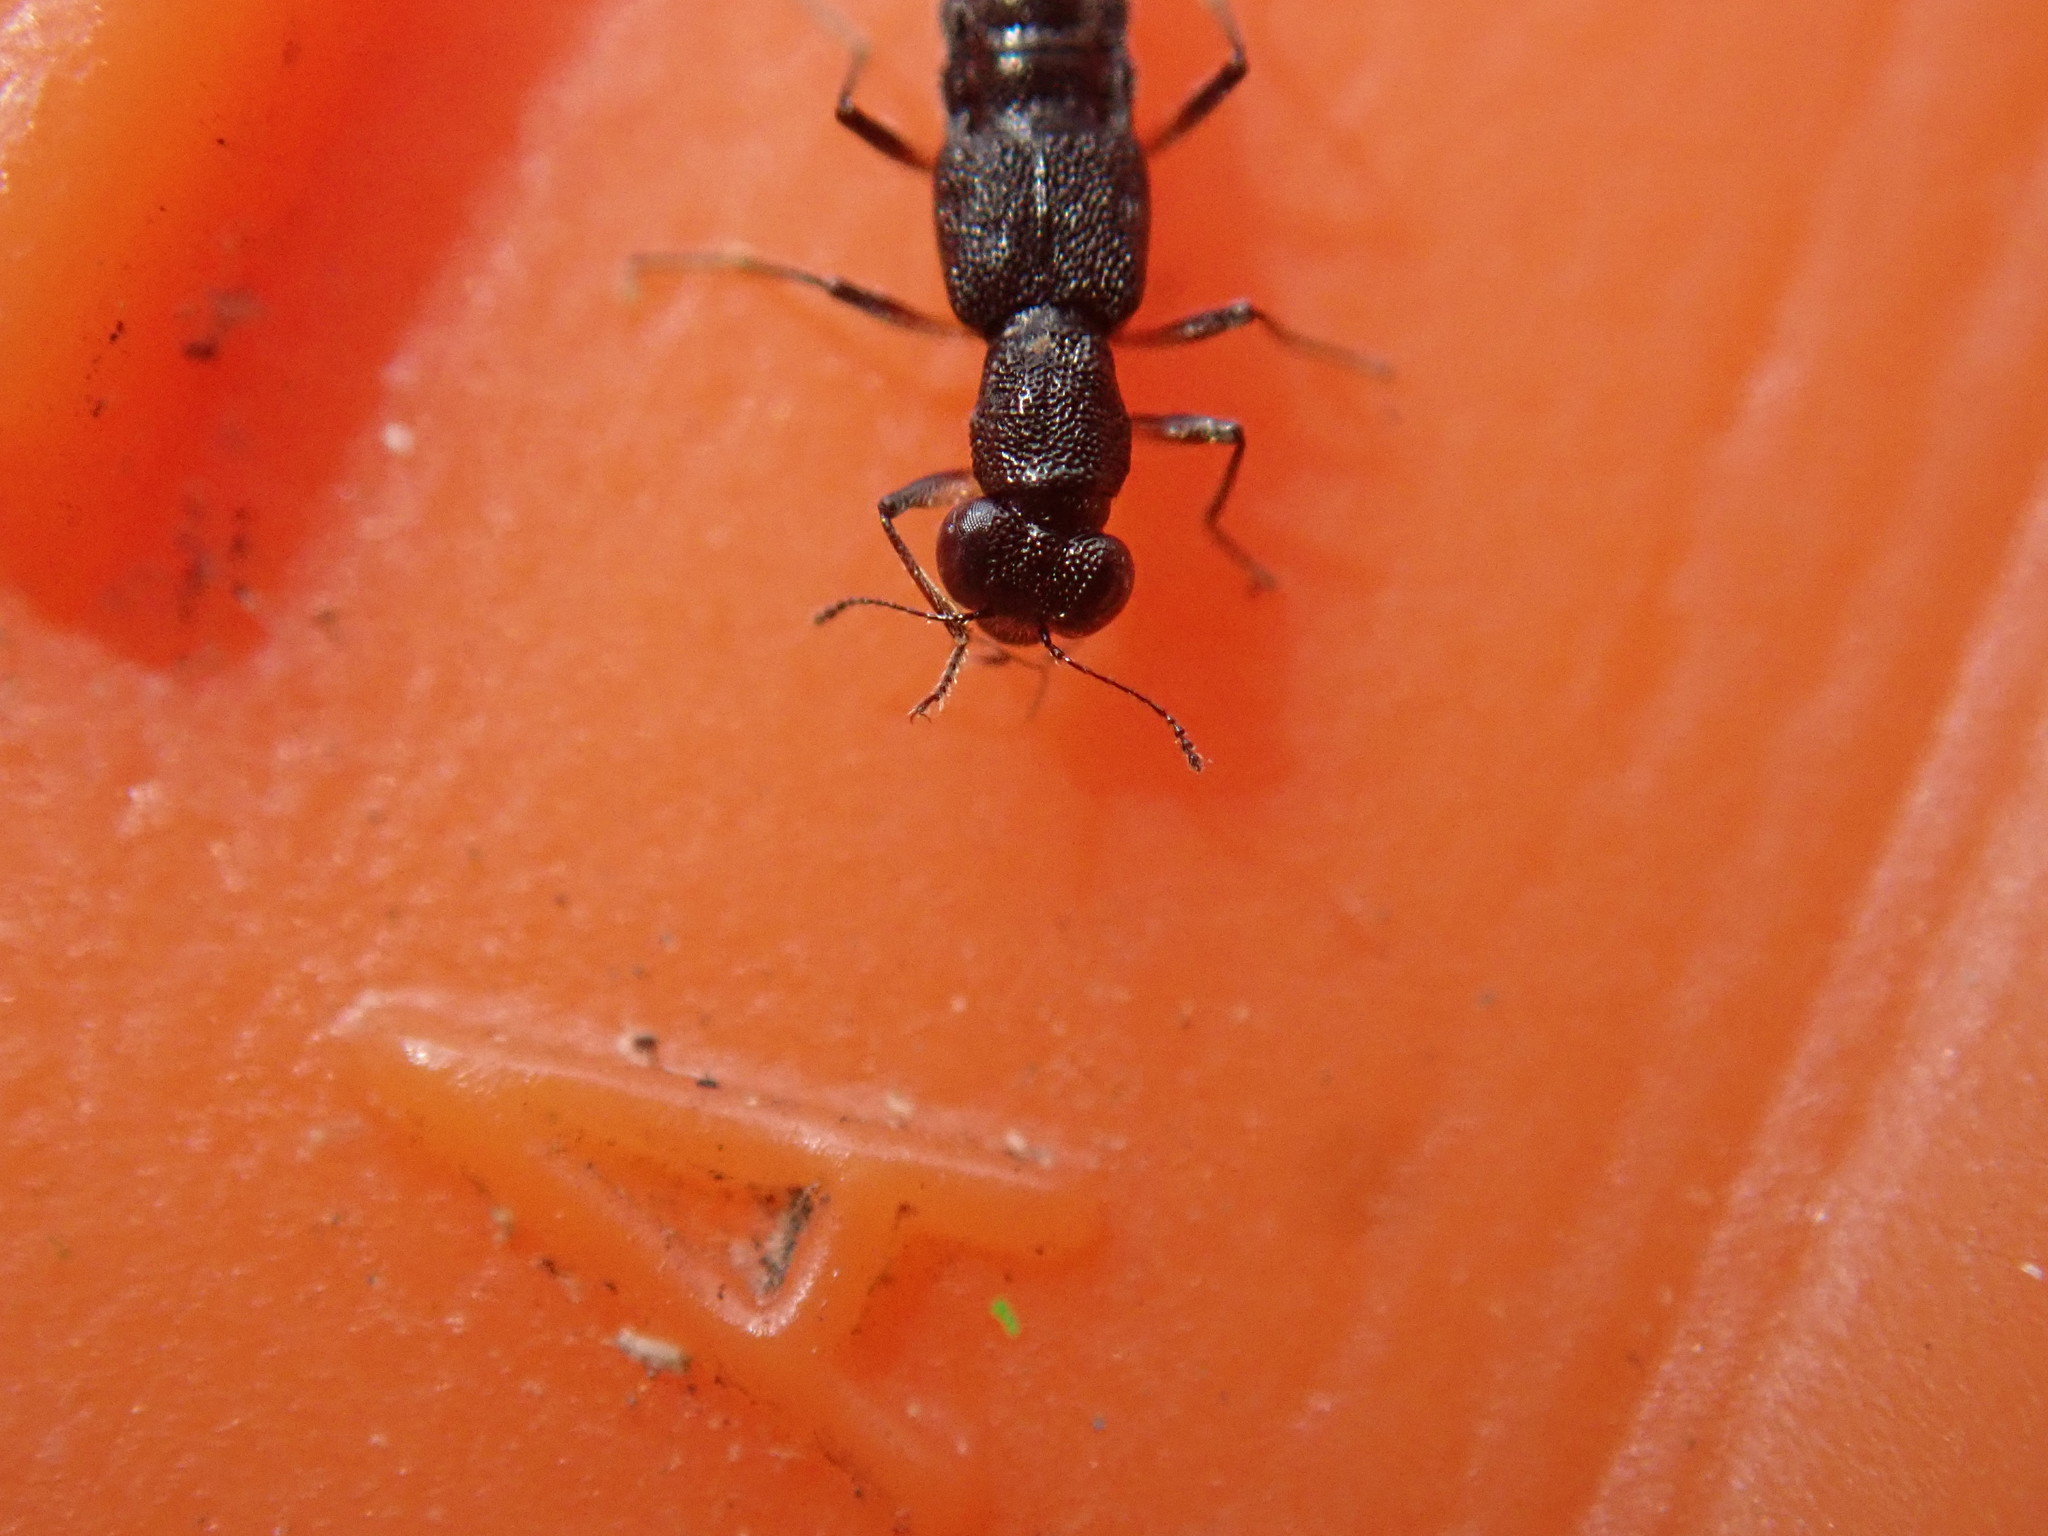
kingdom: Animalia
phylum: Arthropoda
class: Insecta
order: Coleoptera
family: Staphylinidae
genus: Stenus
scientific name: Stenus clavicornis
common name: Staph beetle
